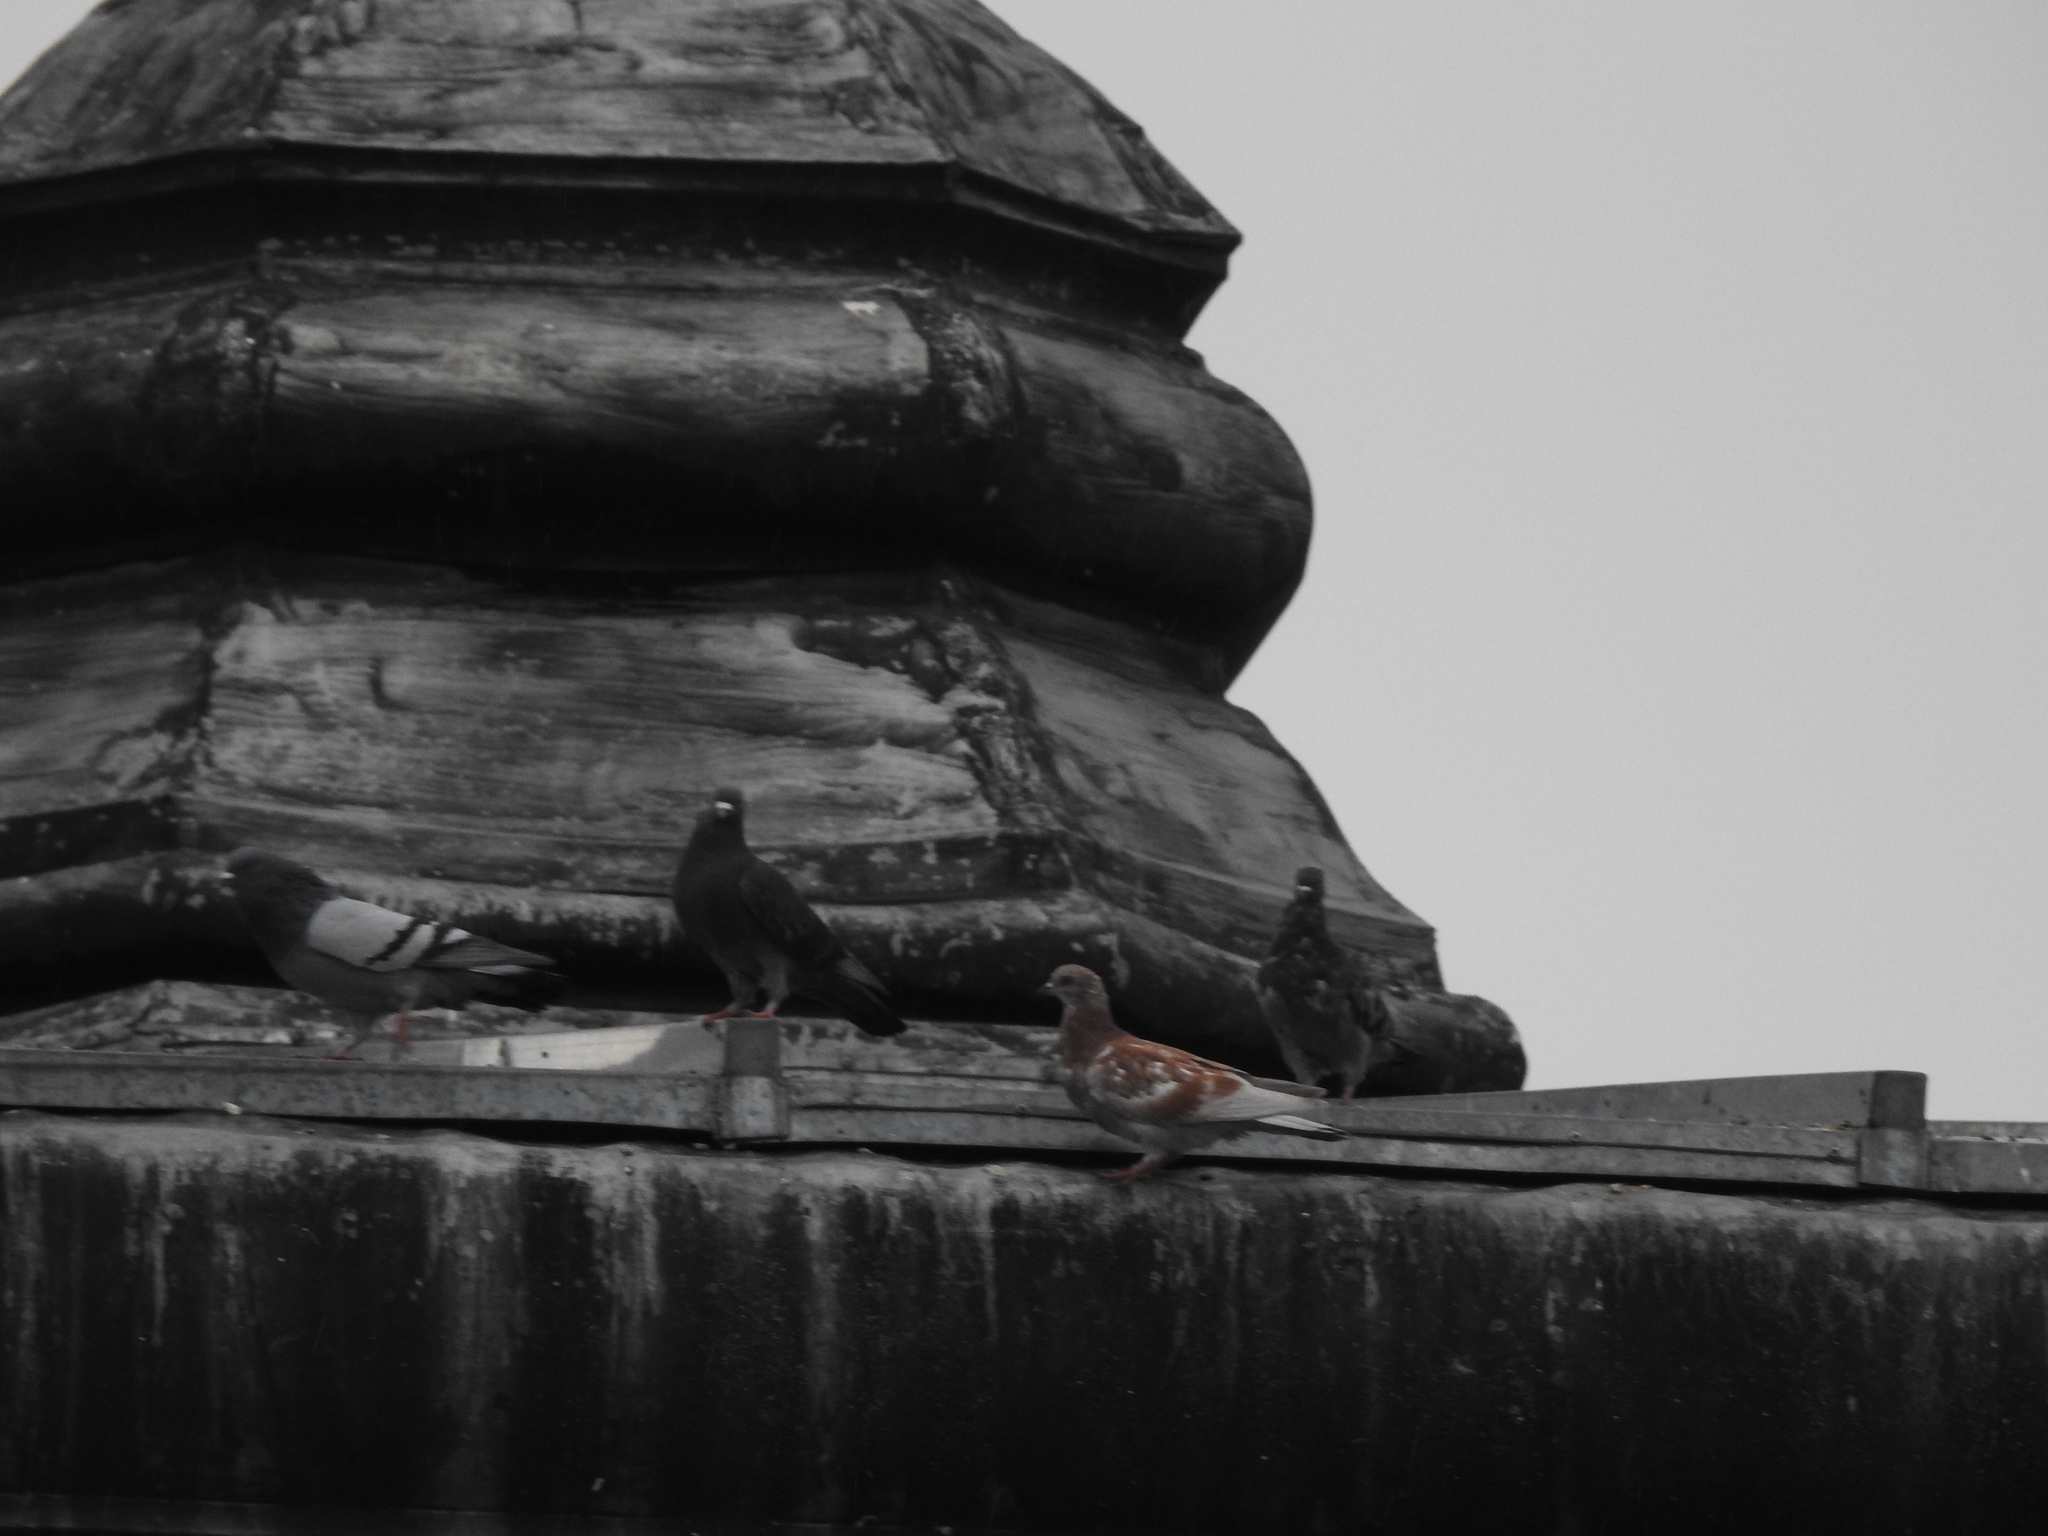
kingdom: Animalia
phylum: Chordata
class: Aves
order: Columbiformes
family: Columbidae
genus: Columba
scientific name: Columba livia
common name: Rock pigeon
